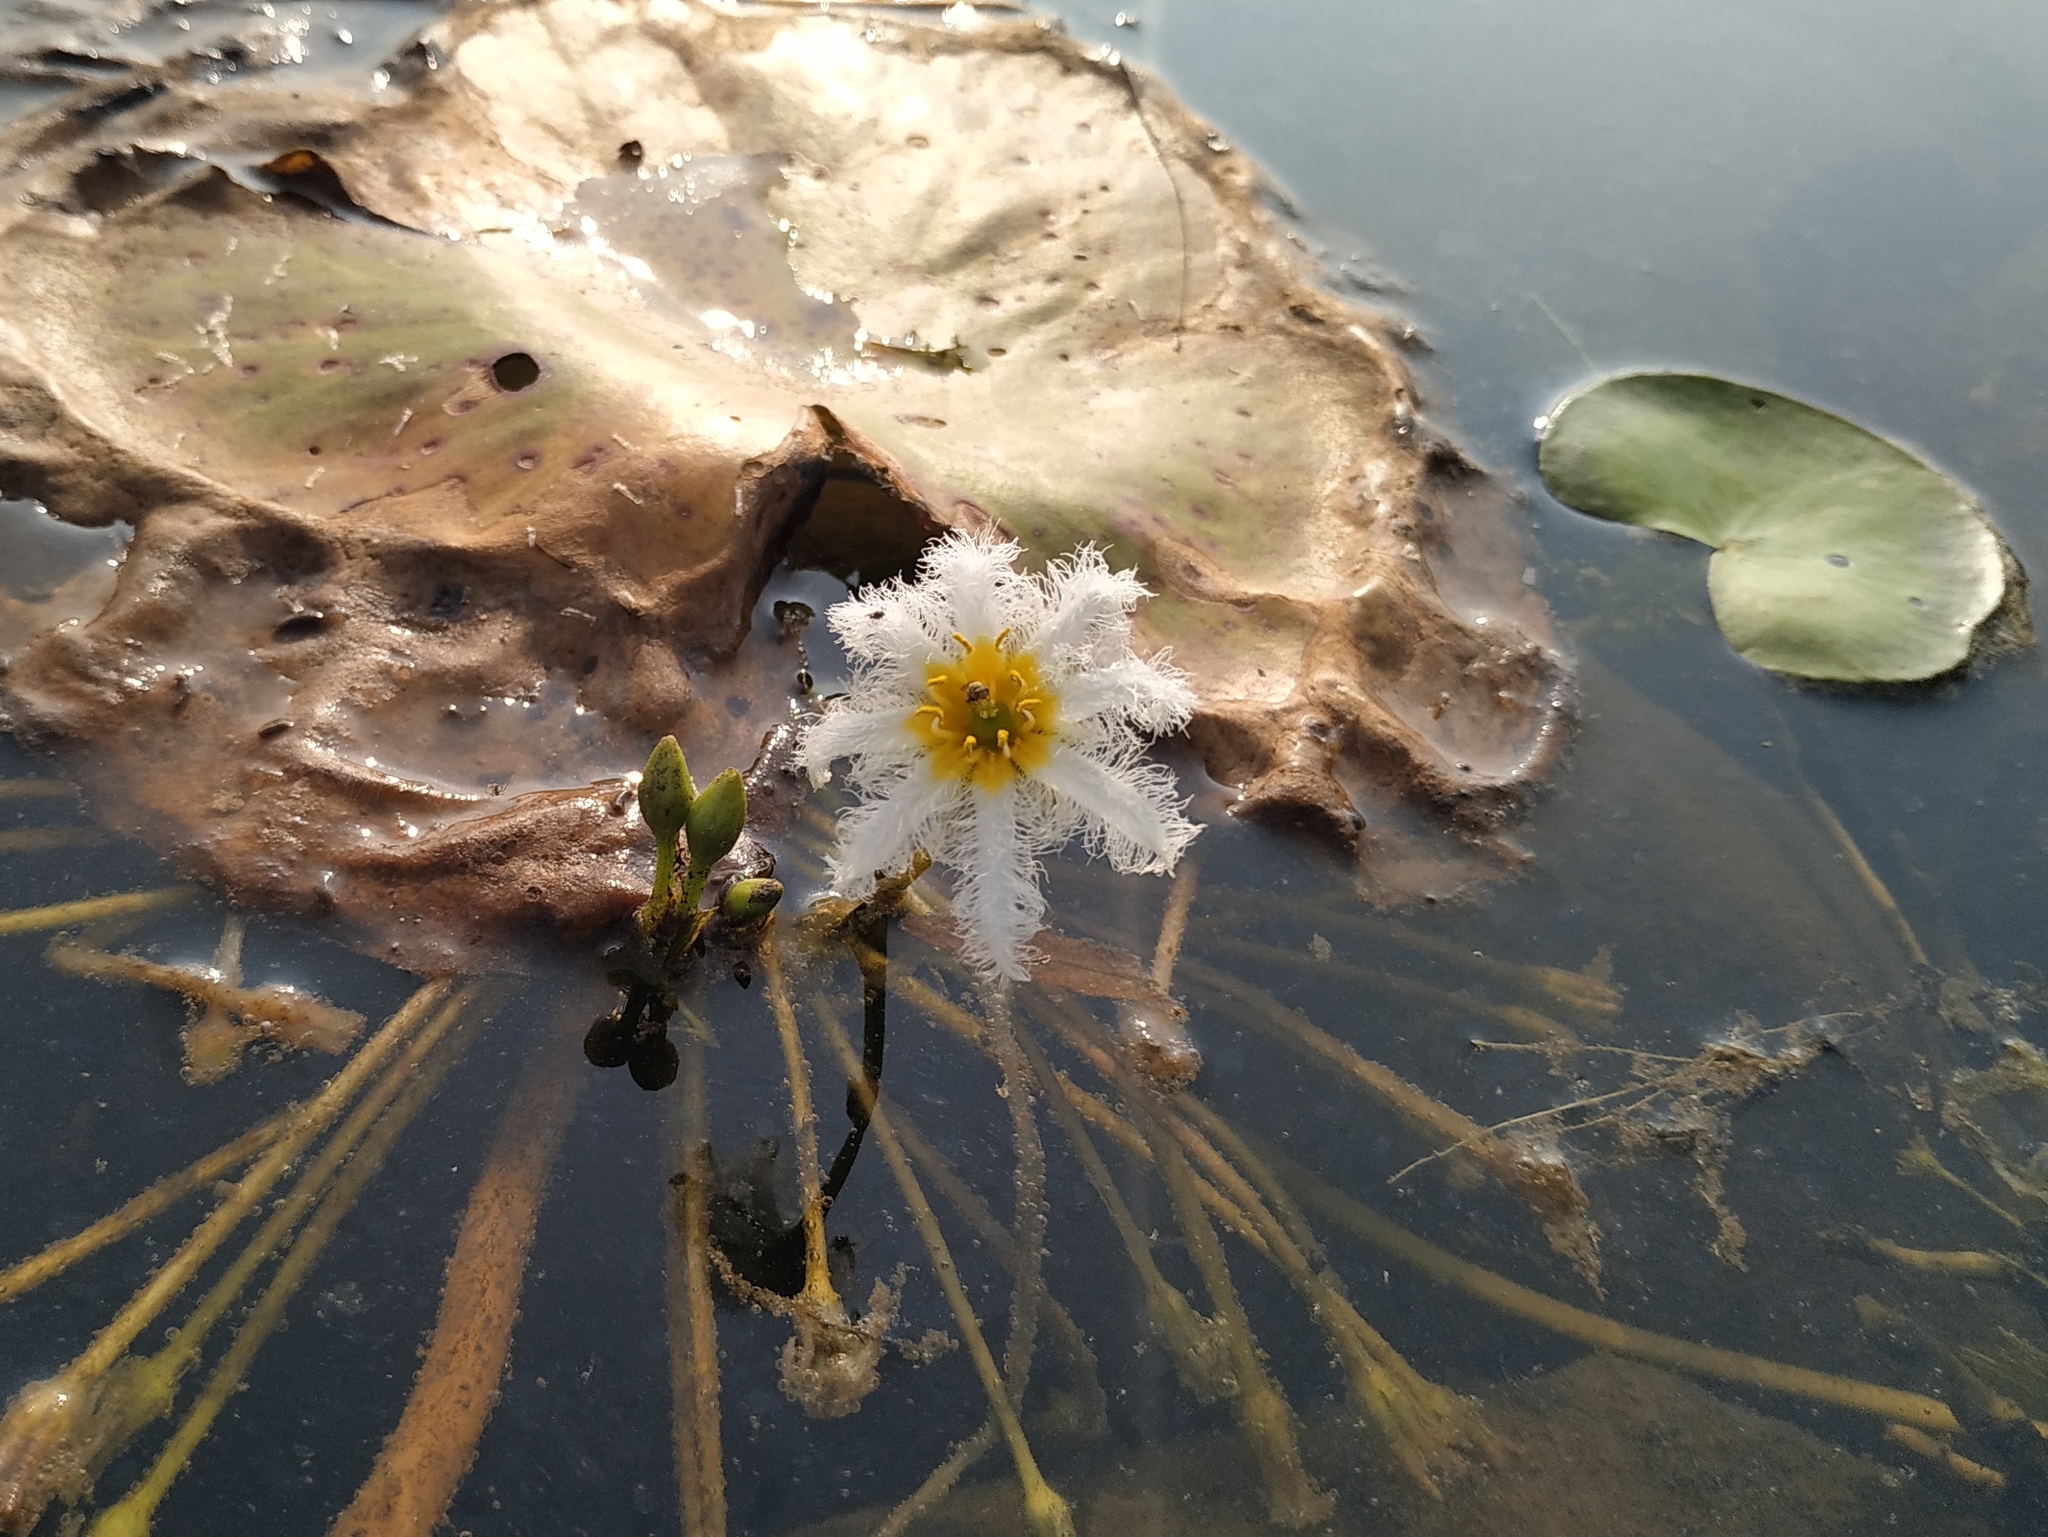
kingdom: Plantae
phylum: Tracheophyta
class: Magnoliopsida
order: Asterales
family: Menyanthaceae
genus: Nymphoides
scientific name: Nymphoides indica
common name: Water-snowflake
